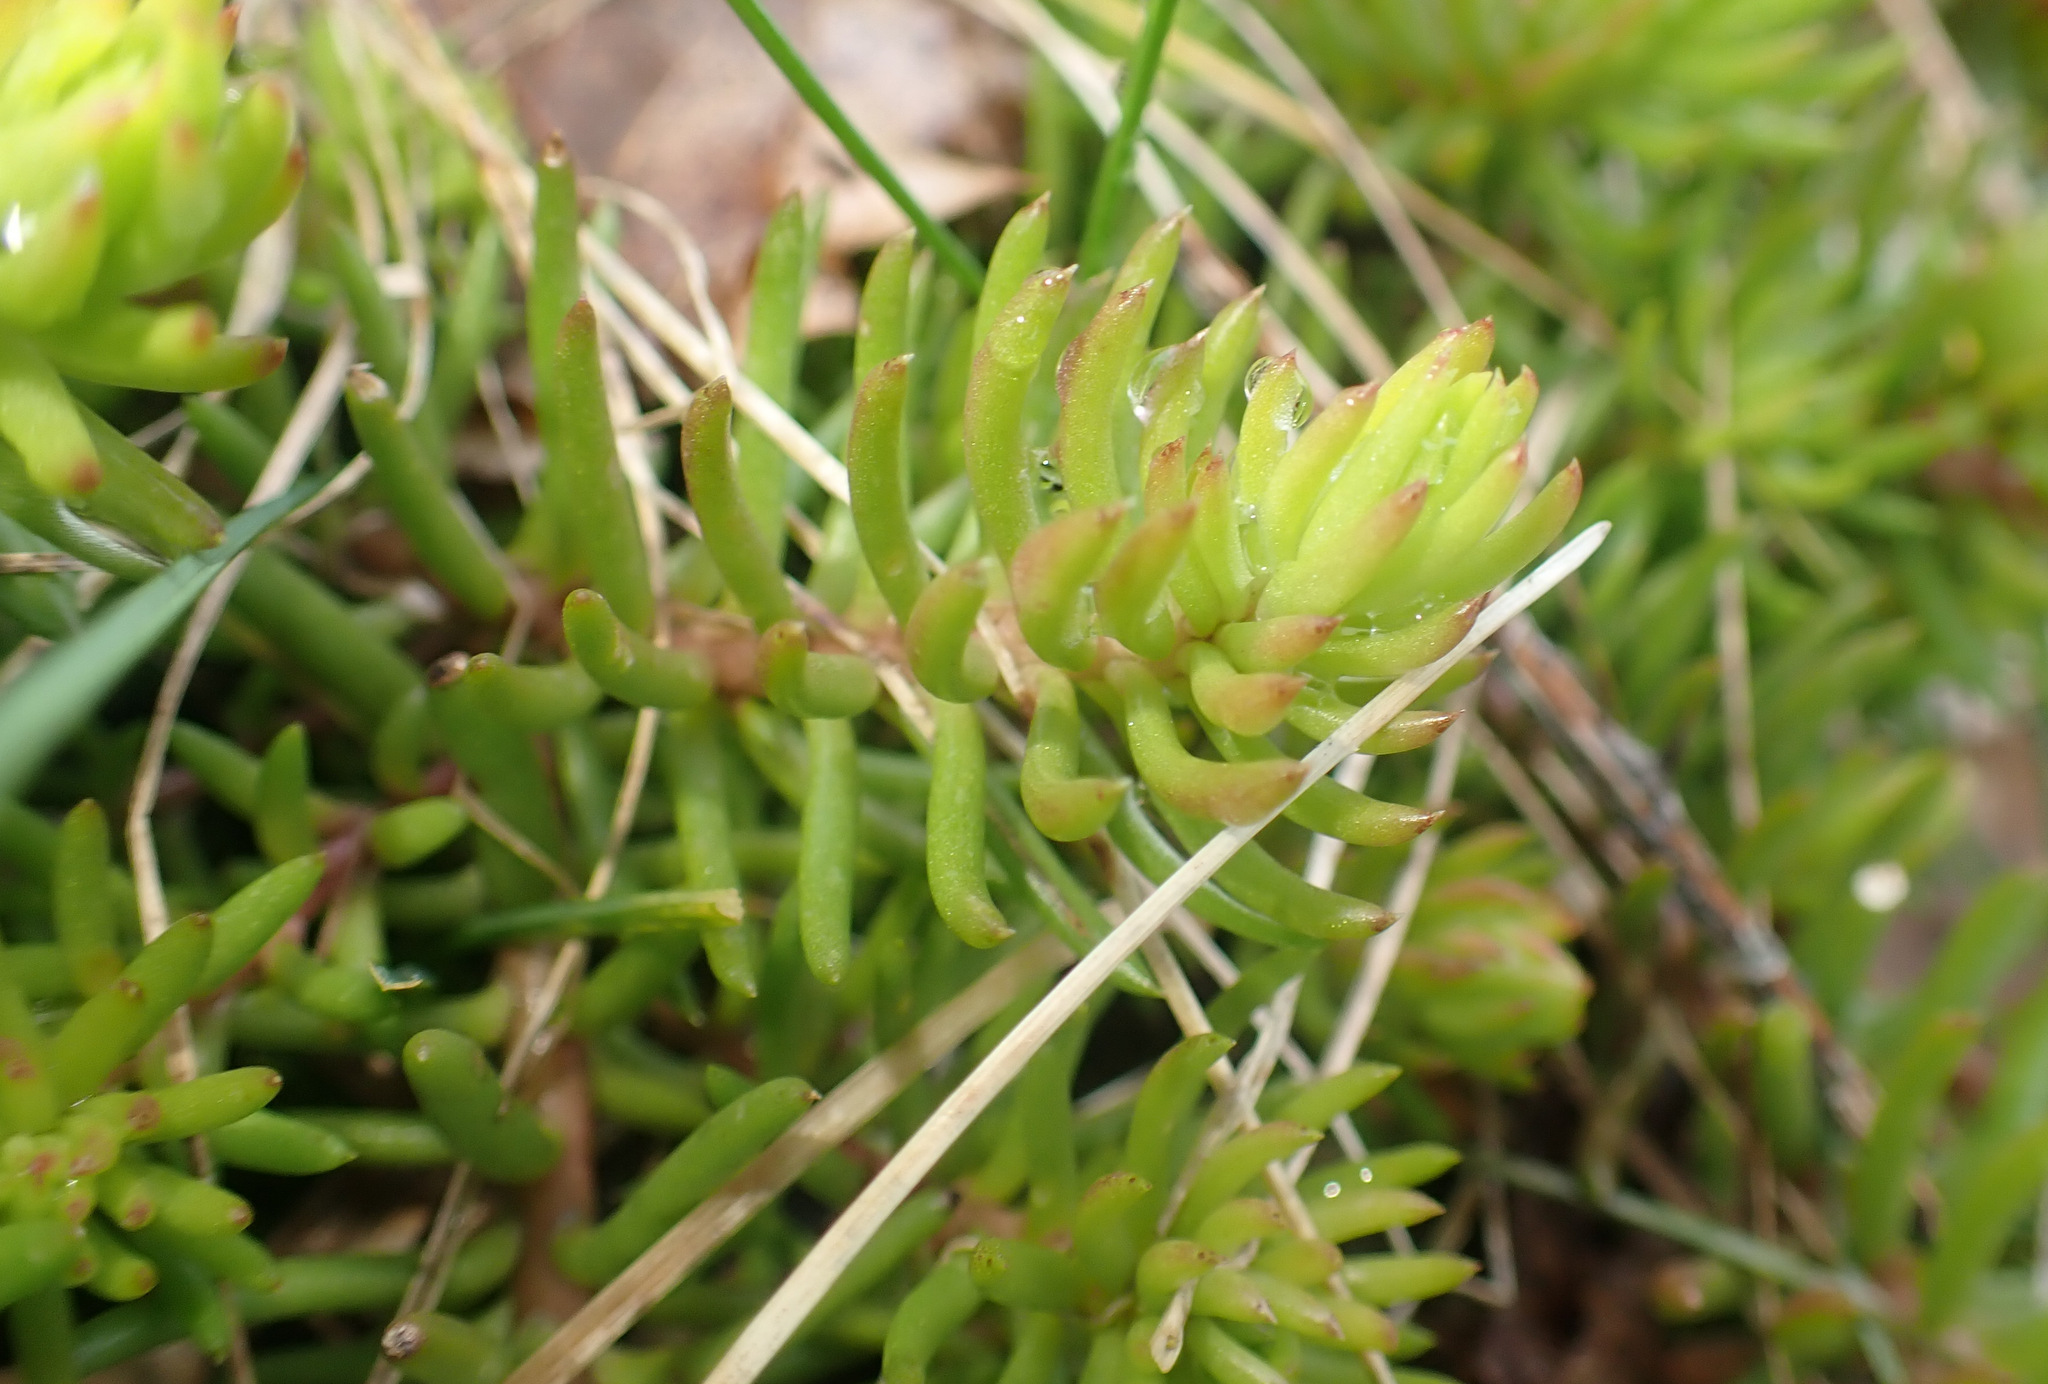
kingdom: Plantae
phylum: Tracheophyta
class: Magnoliopsida
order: Saxifragales
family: Crassulaceae
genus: Petrosedum
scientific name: Petrosedum rupestre
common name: Jenny's stonecrop
